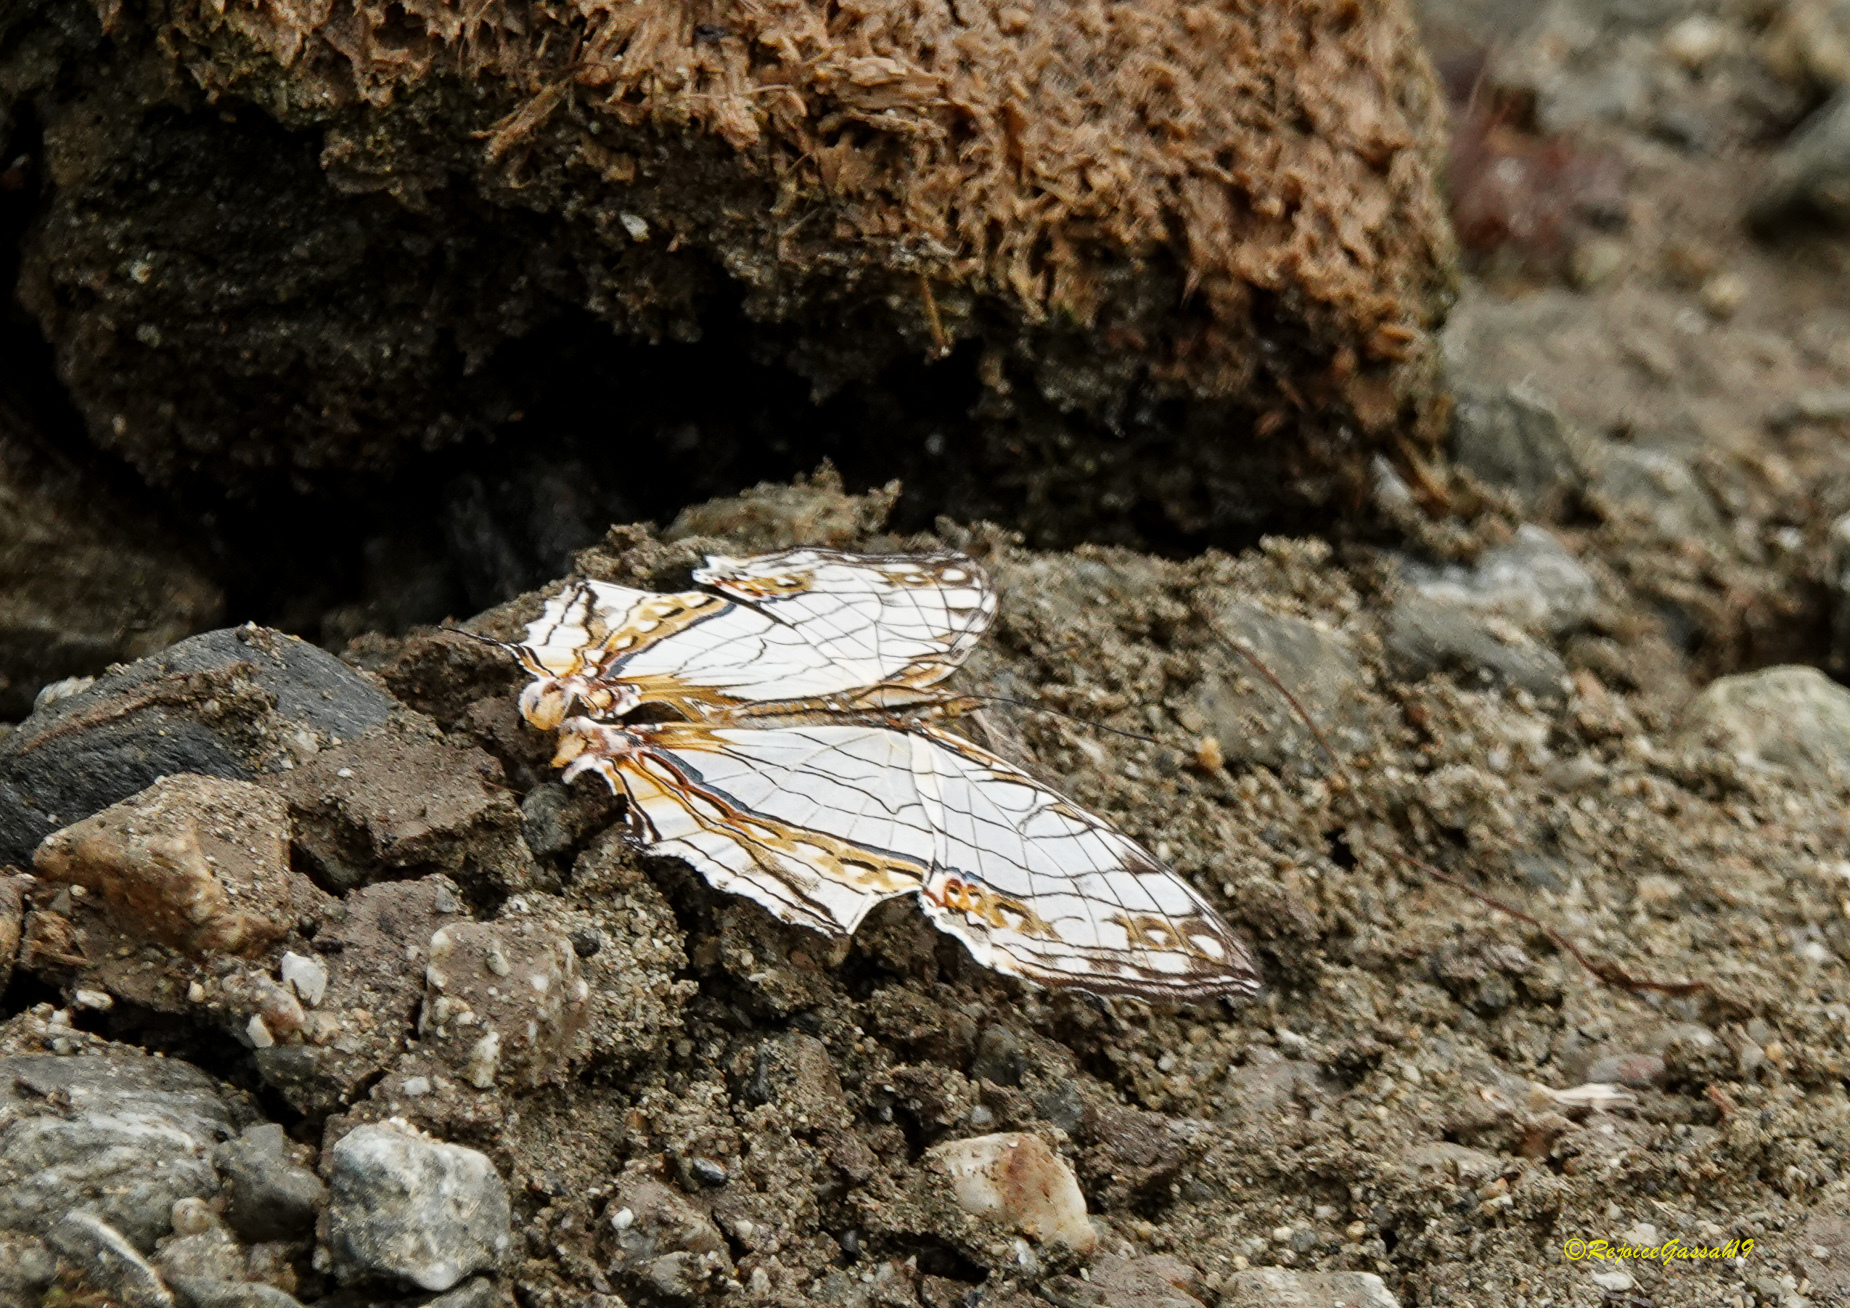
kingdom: Animalia
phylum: Arthropoda
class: Insecta
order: Lepidoptera
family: Nymphalidae
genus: Cyrestis
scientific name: Cyrestis thyodamas
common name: Common mapwing
